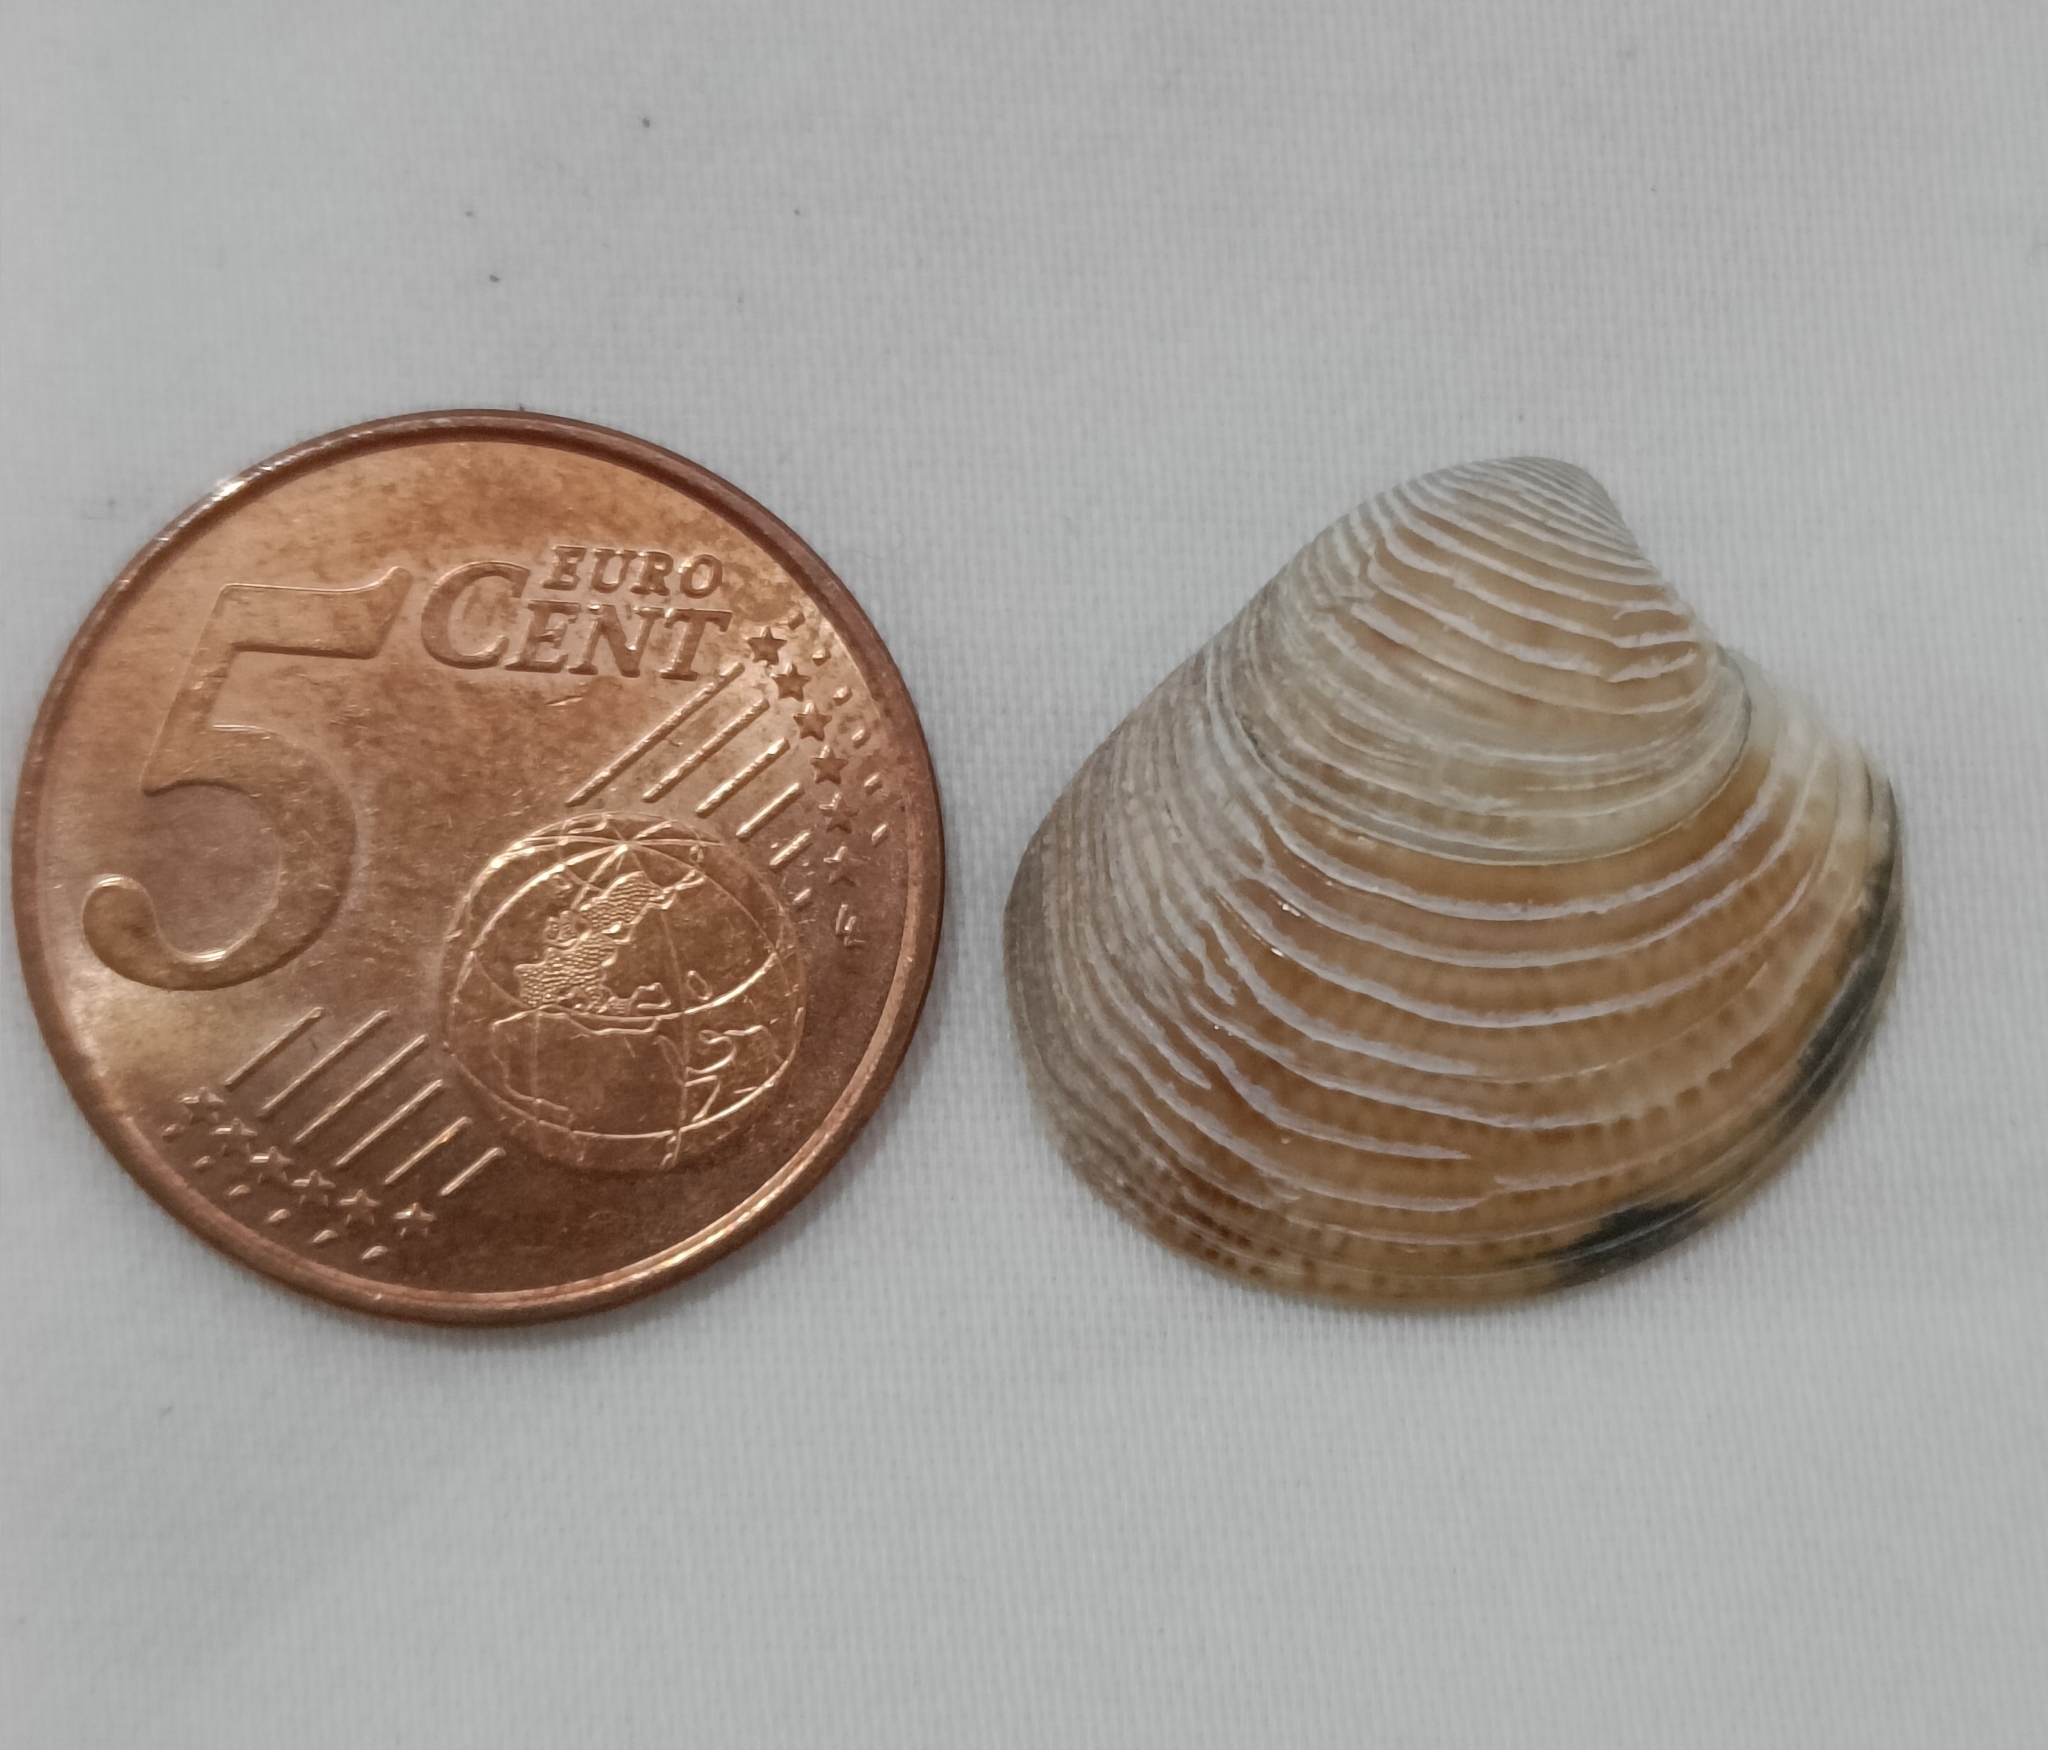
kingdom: Animalia
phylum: Mollusca
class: Bivalvia
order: Venerida
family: Veneridae
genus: Chamelea
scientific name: Chamelea gallina
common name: Chicken venus
